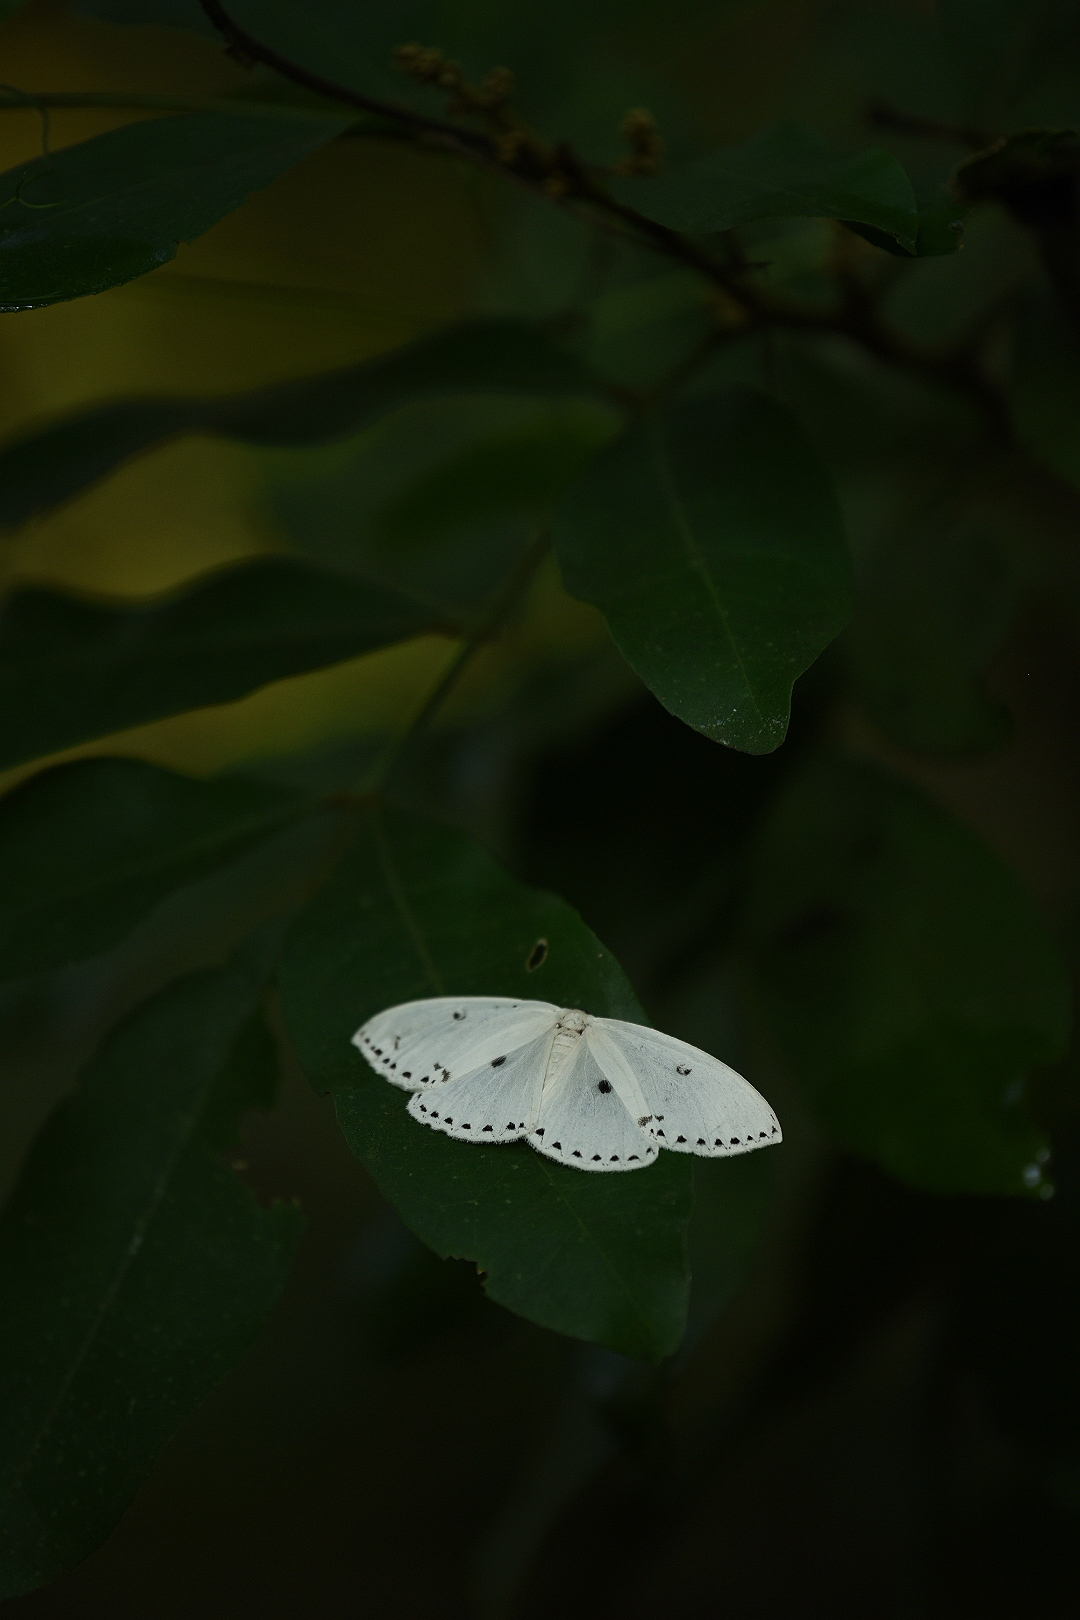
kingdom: Animalia
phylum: Arthropoda
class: Insecta
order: Lepidoptera
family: Drepanidae
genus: Cyclidia
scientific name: Cyclidia dictyaria
